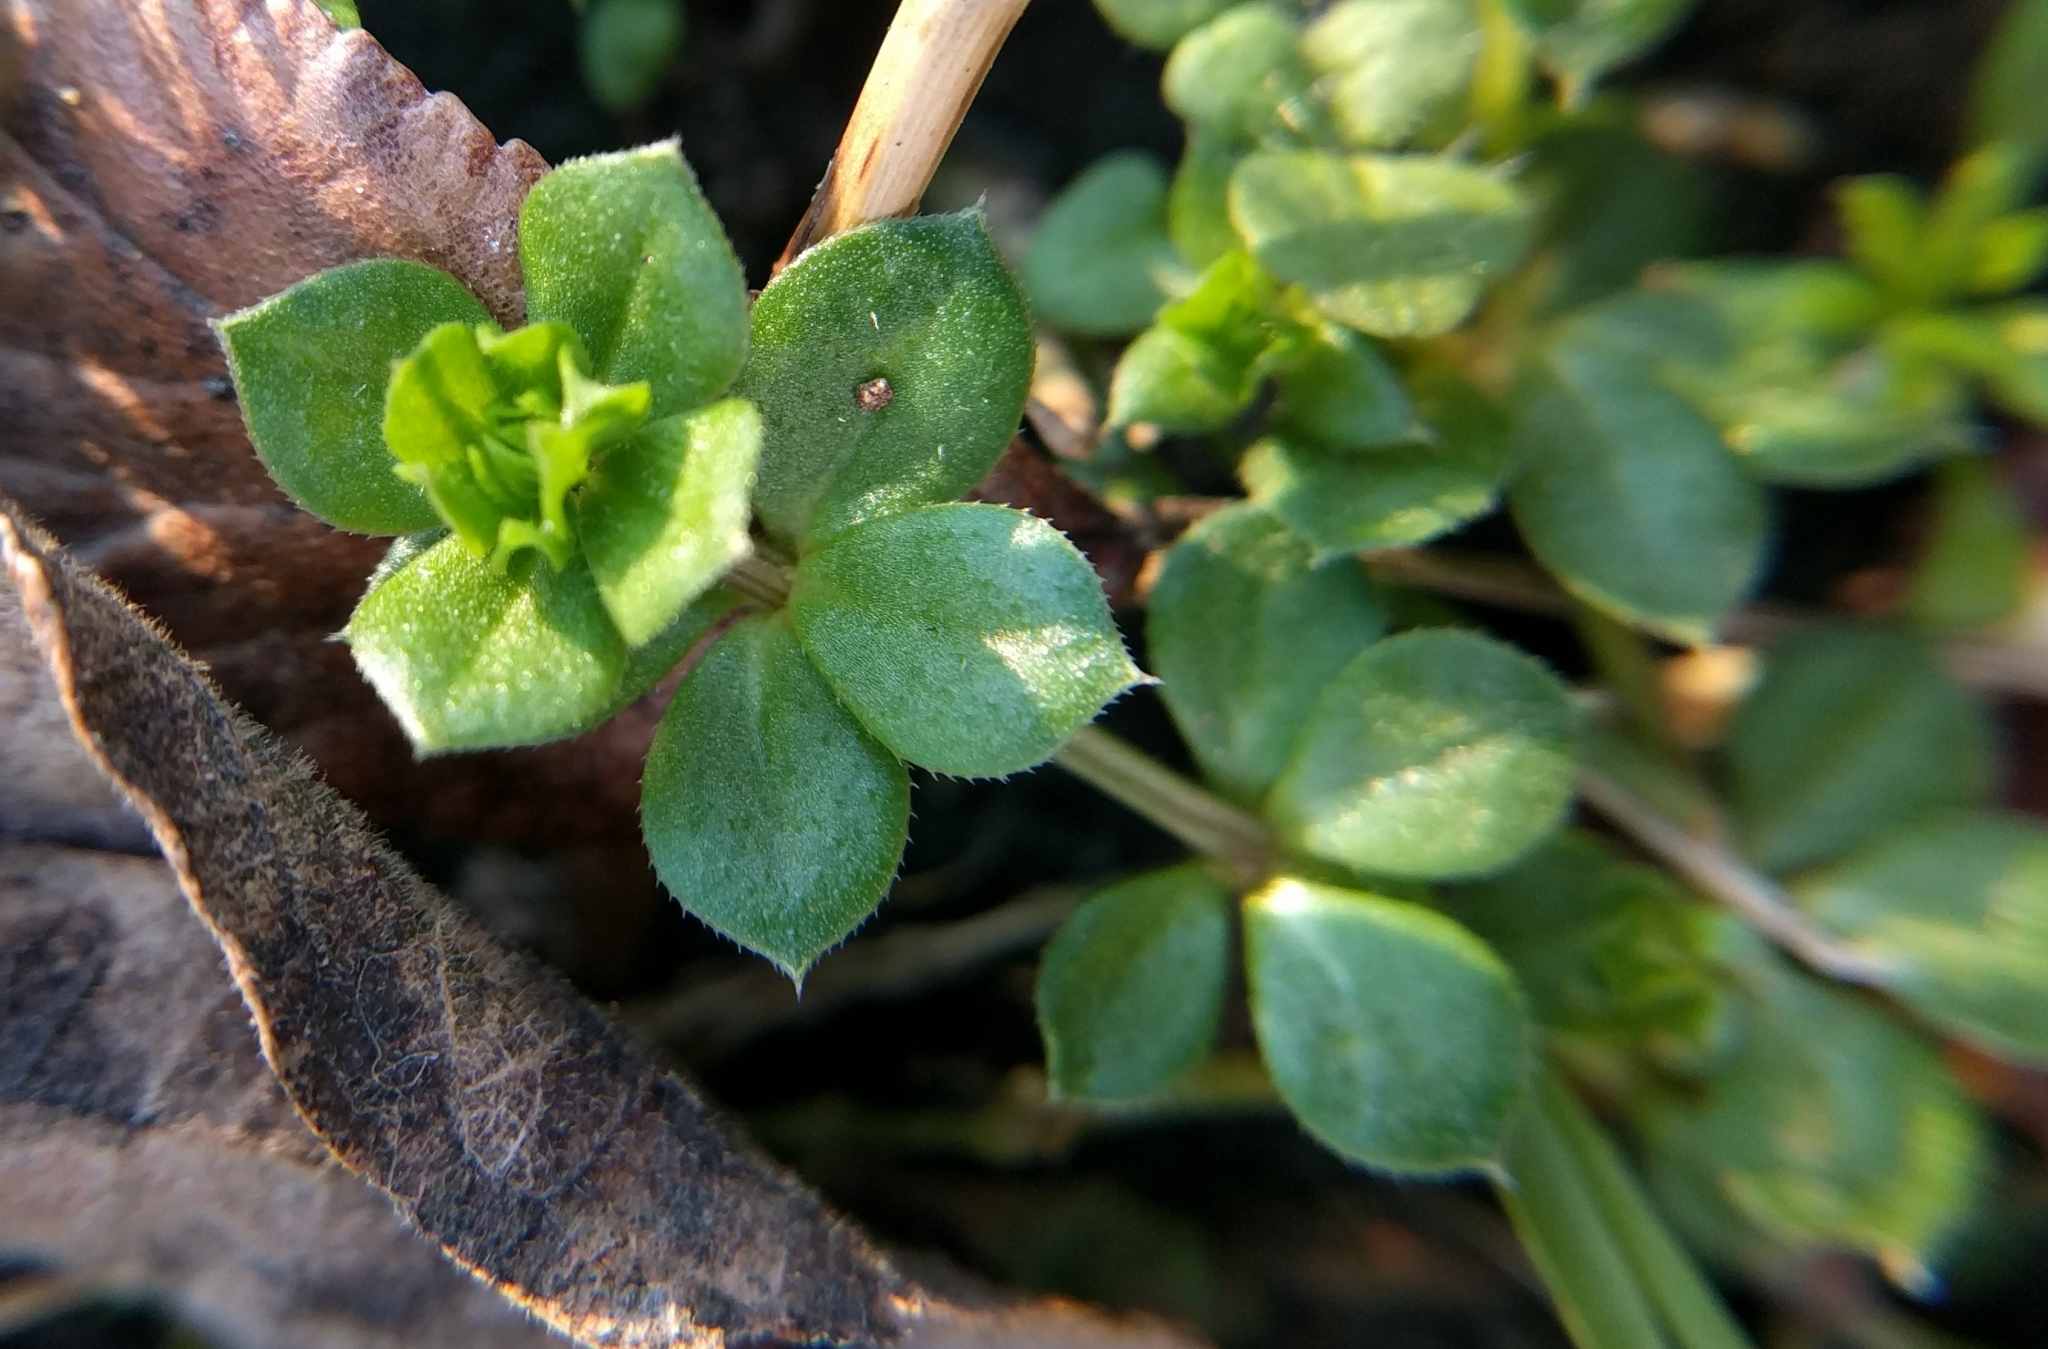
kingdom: Plantae
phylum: Tracheophyta
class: Magnoliopsida
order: Gentianales
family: Rubiaceae
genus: Sherardia
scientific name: Sherardia arvensis
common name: Field madder
